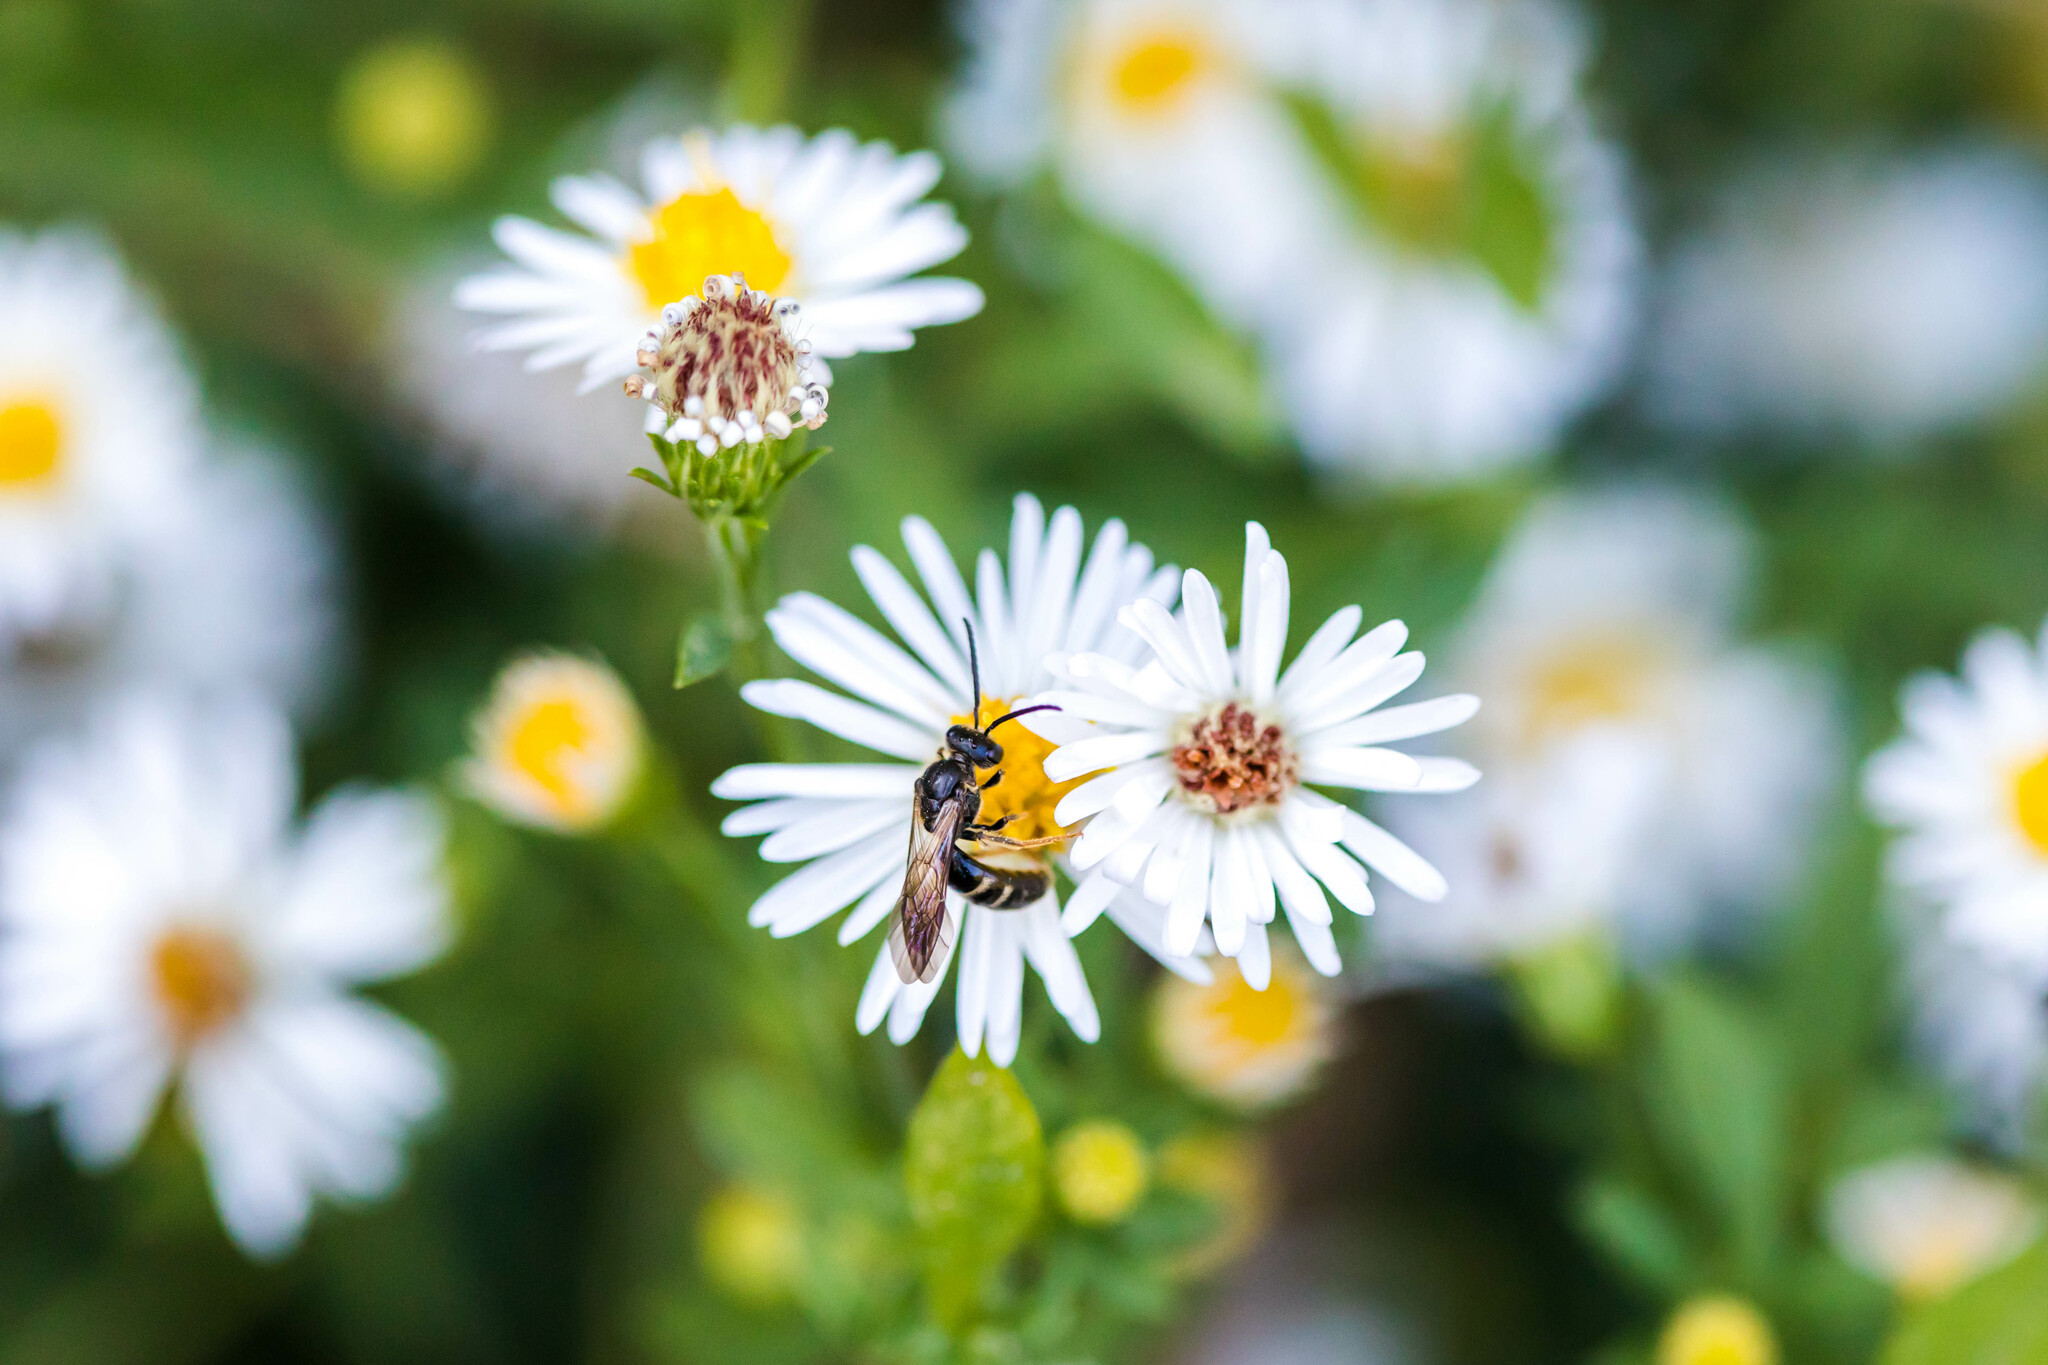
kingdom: Animalia
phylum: Arthropoda
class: Insecta
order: Hymenoptera
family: Halictidae
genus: Lasioglossum
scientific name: Lasioglossum fuscipenne
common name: Brown-winged sweat bee
